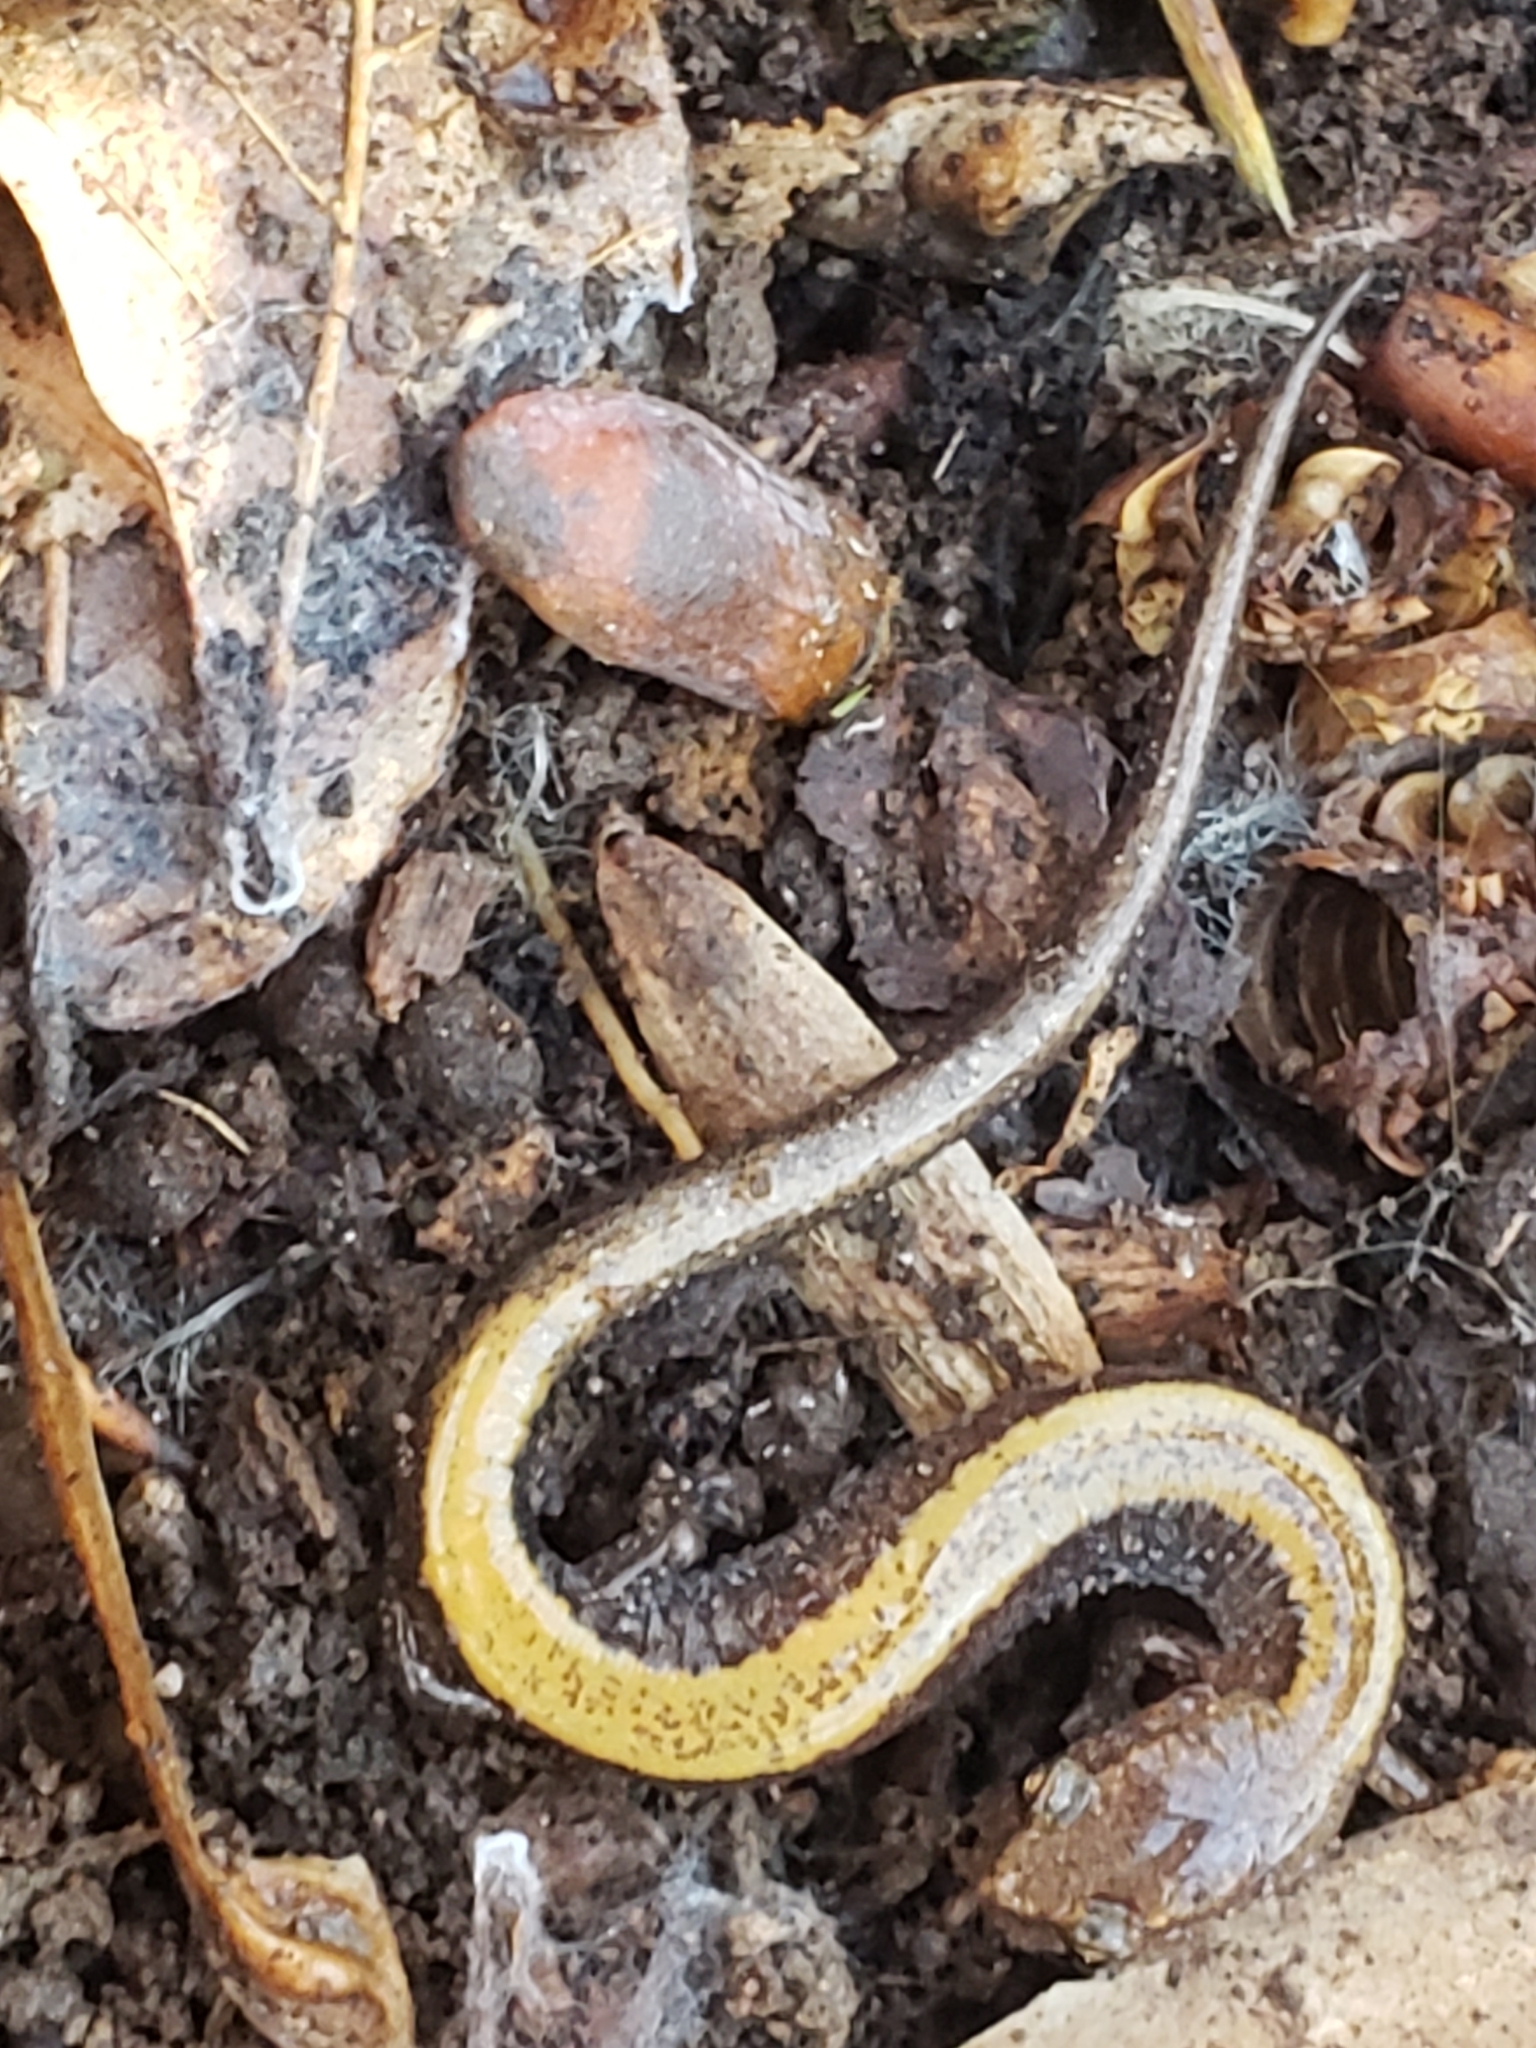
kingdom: Animalia
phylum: Chordata
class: Amphibia
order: Caudata
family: Plethodontidae
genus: Plethodon
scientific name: Plethodon cinereus
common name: Redback salamander
